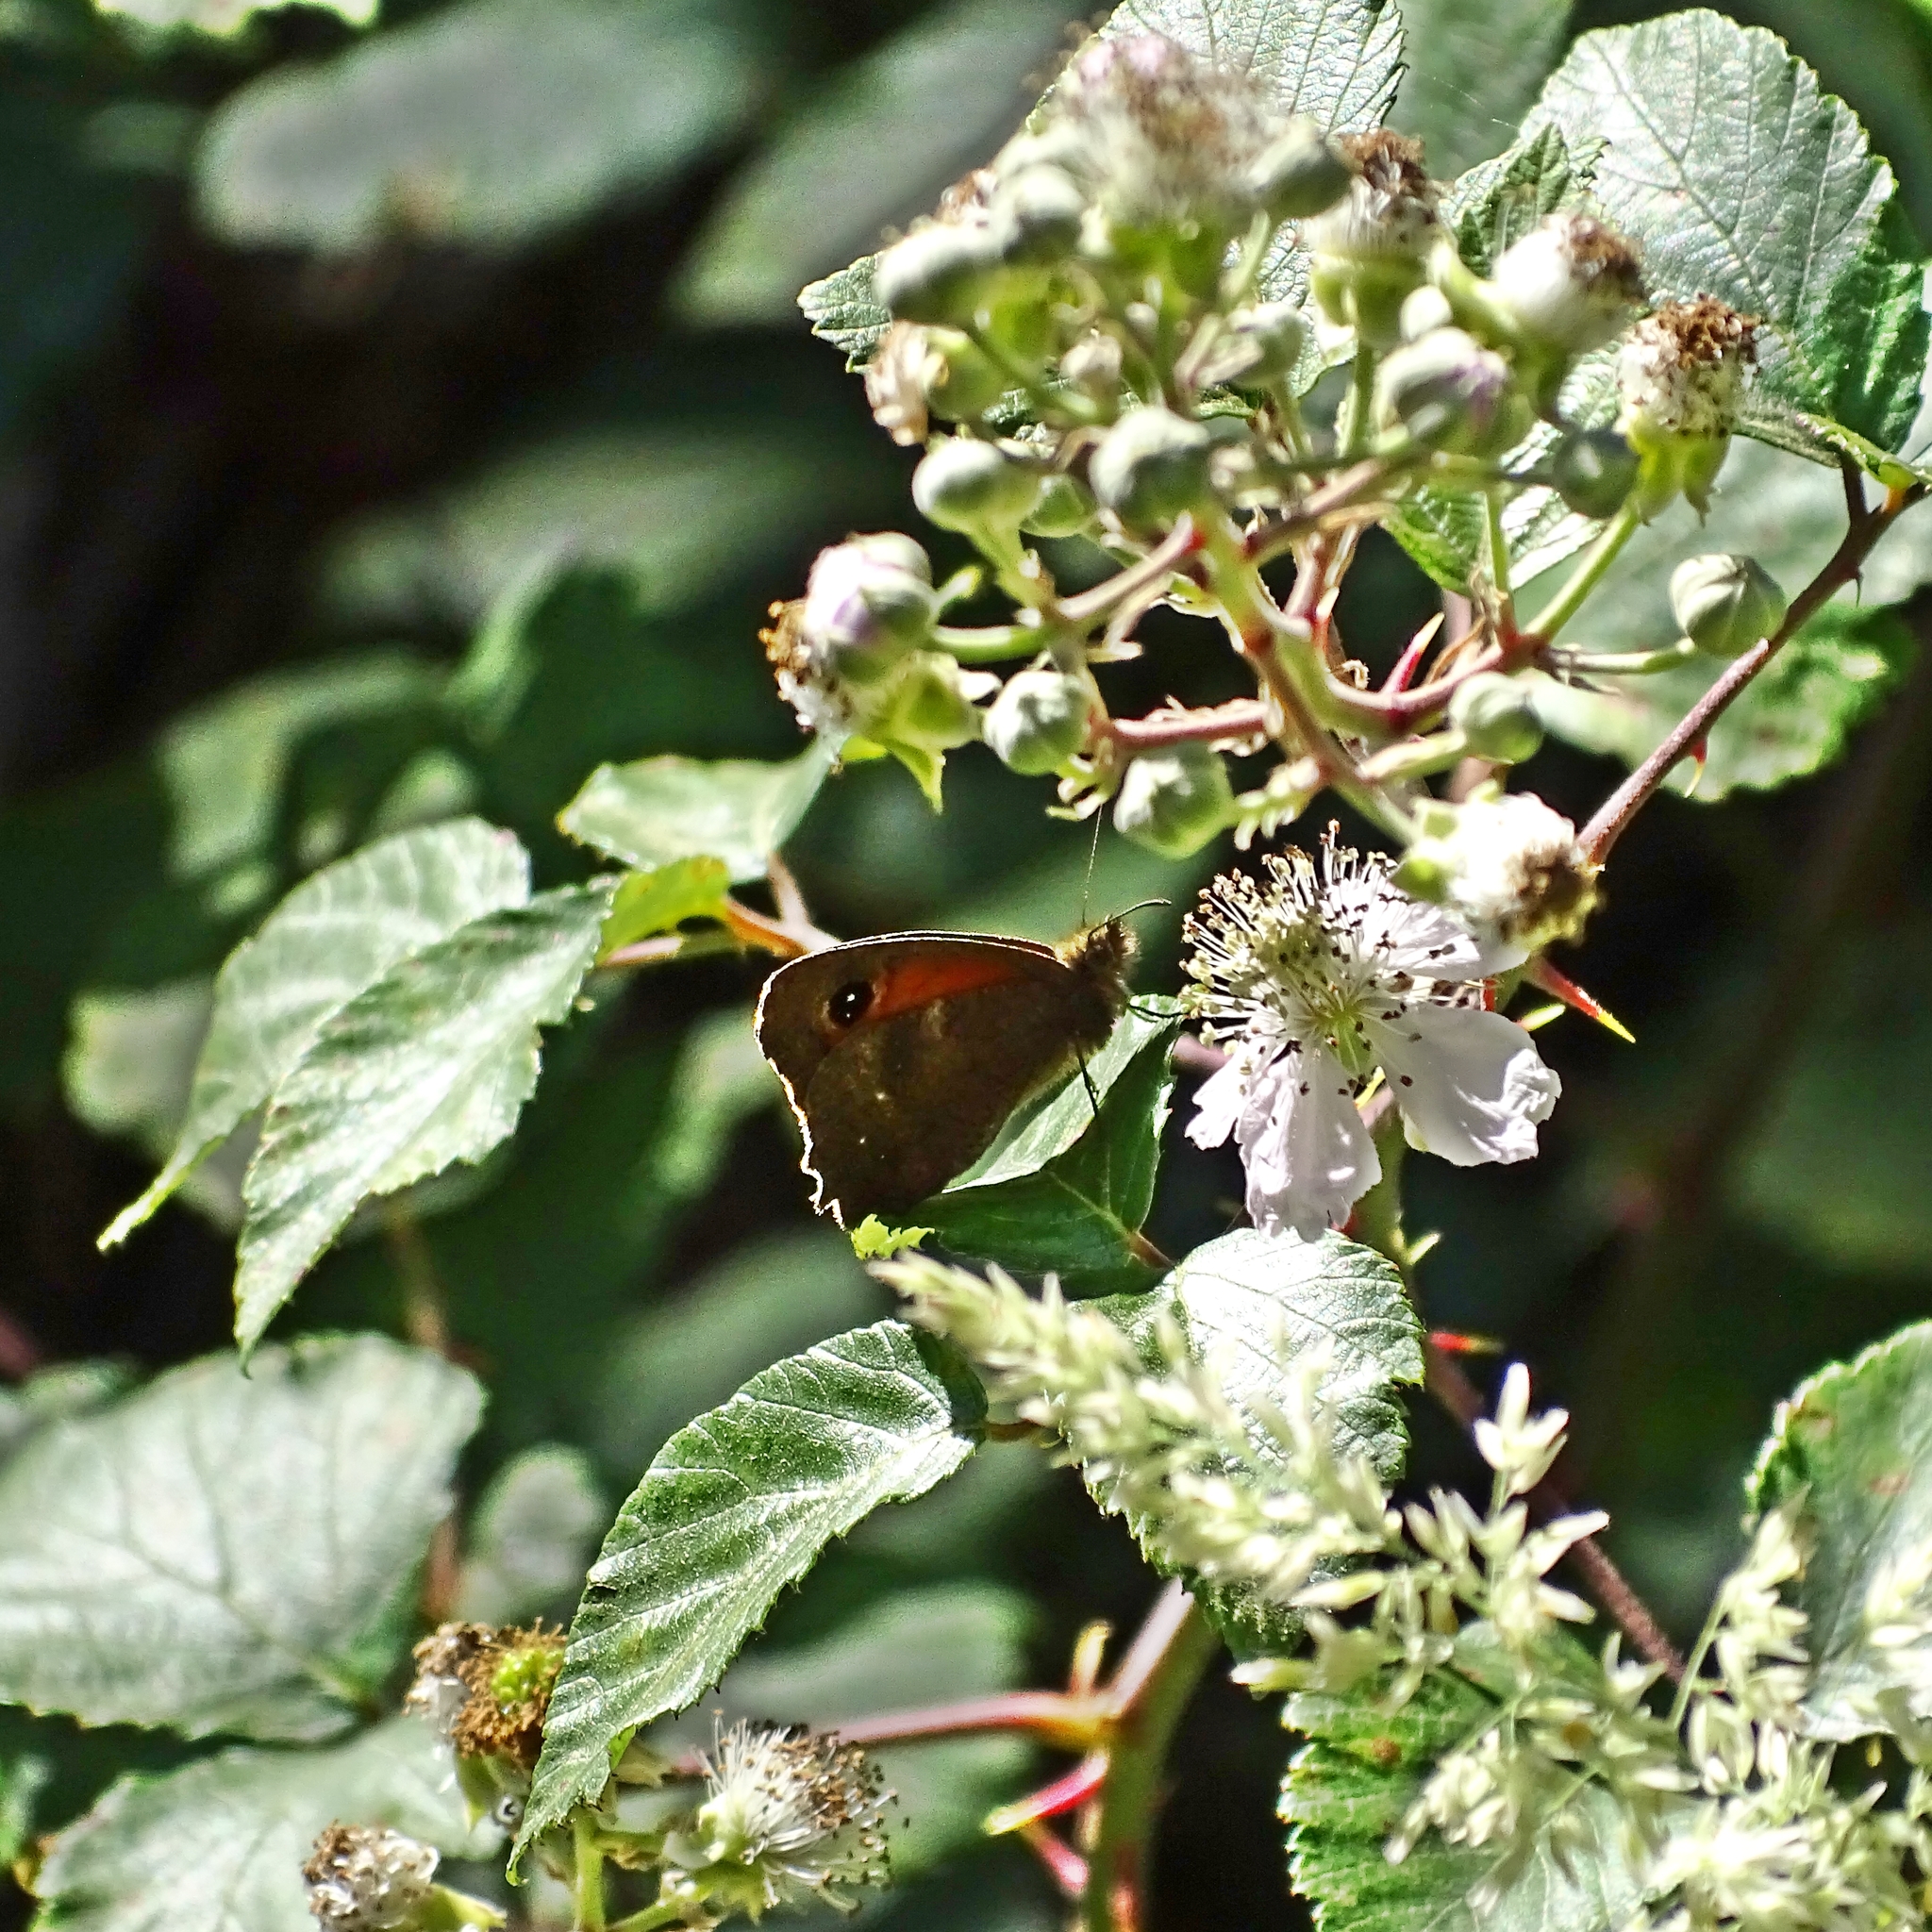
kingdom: Animalia
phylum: Arthropoda
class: Insecta
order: Lepidoptera
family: Nymphalidae
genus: Auca
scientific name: Auca coctei
